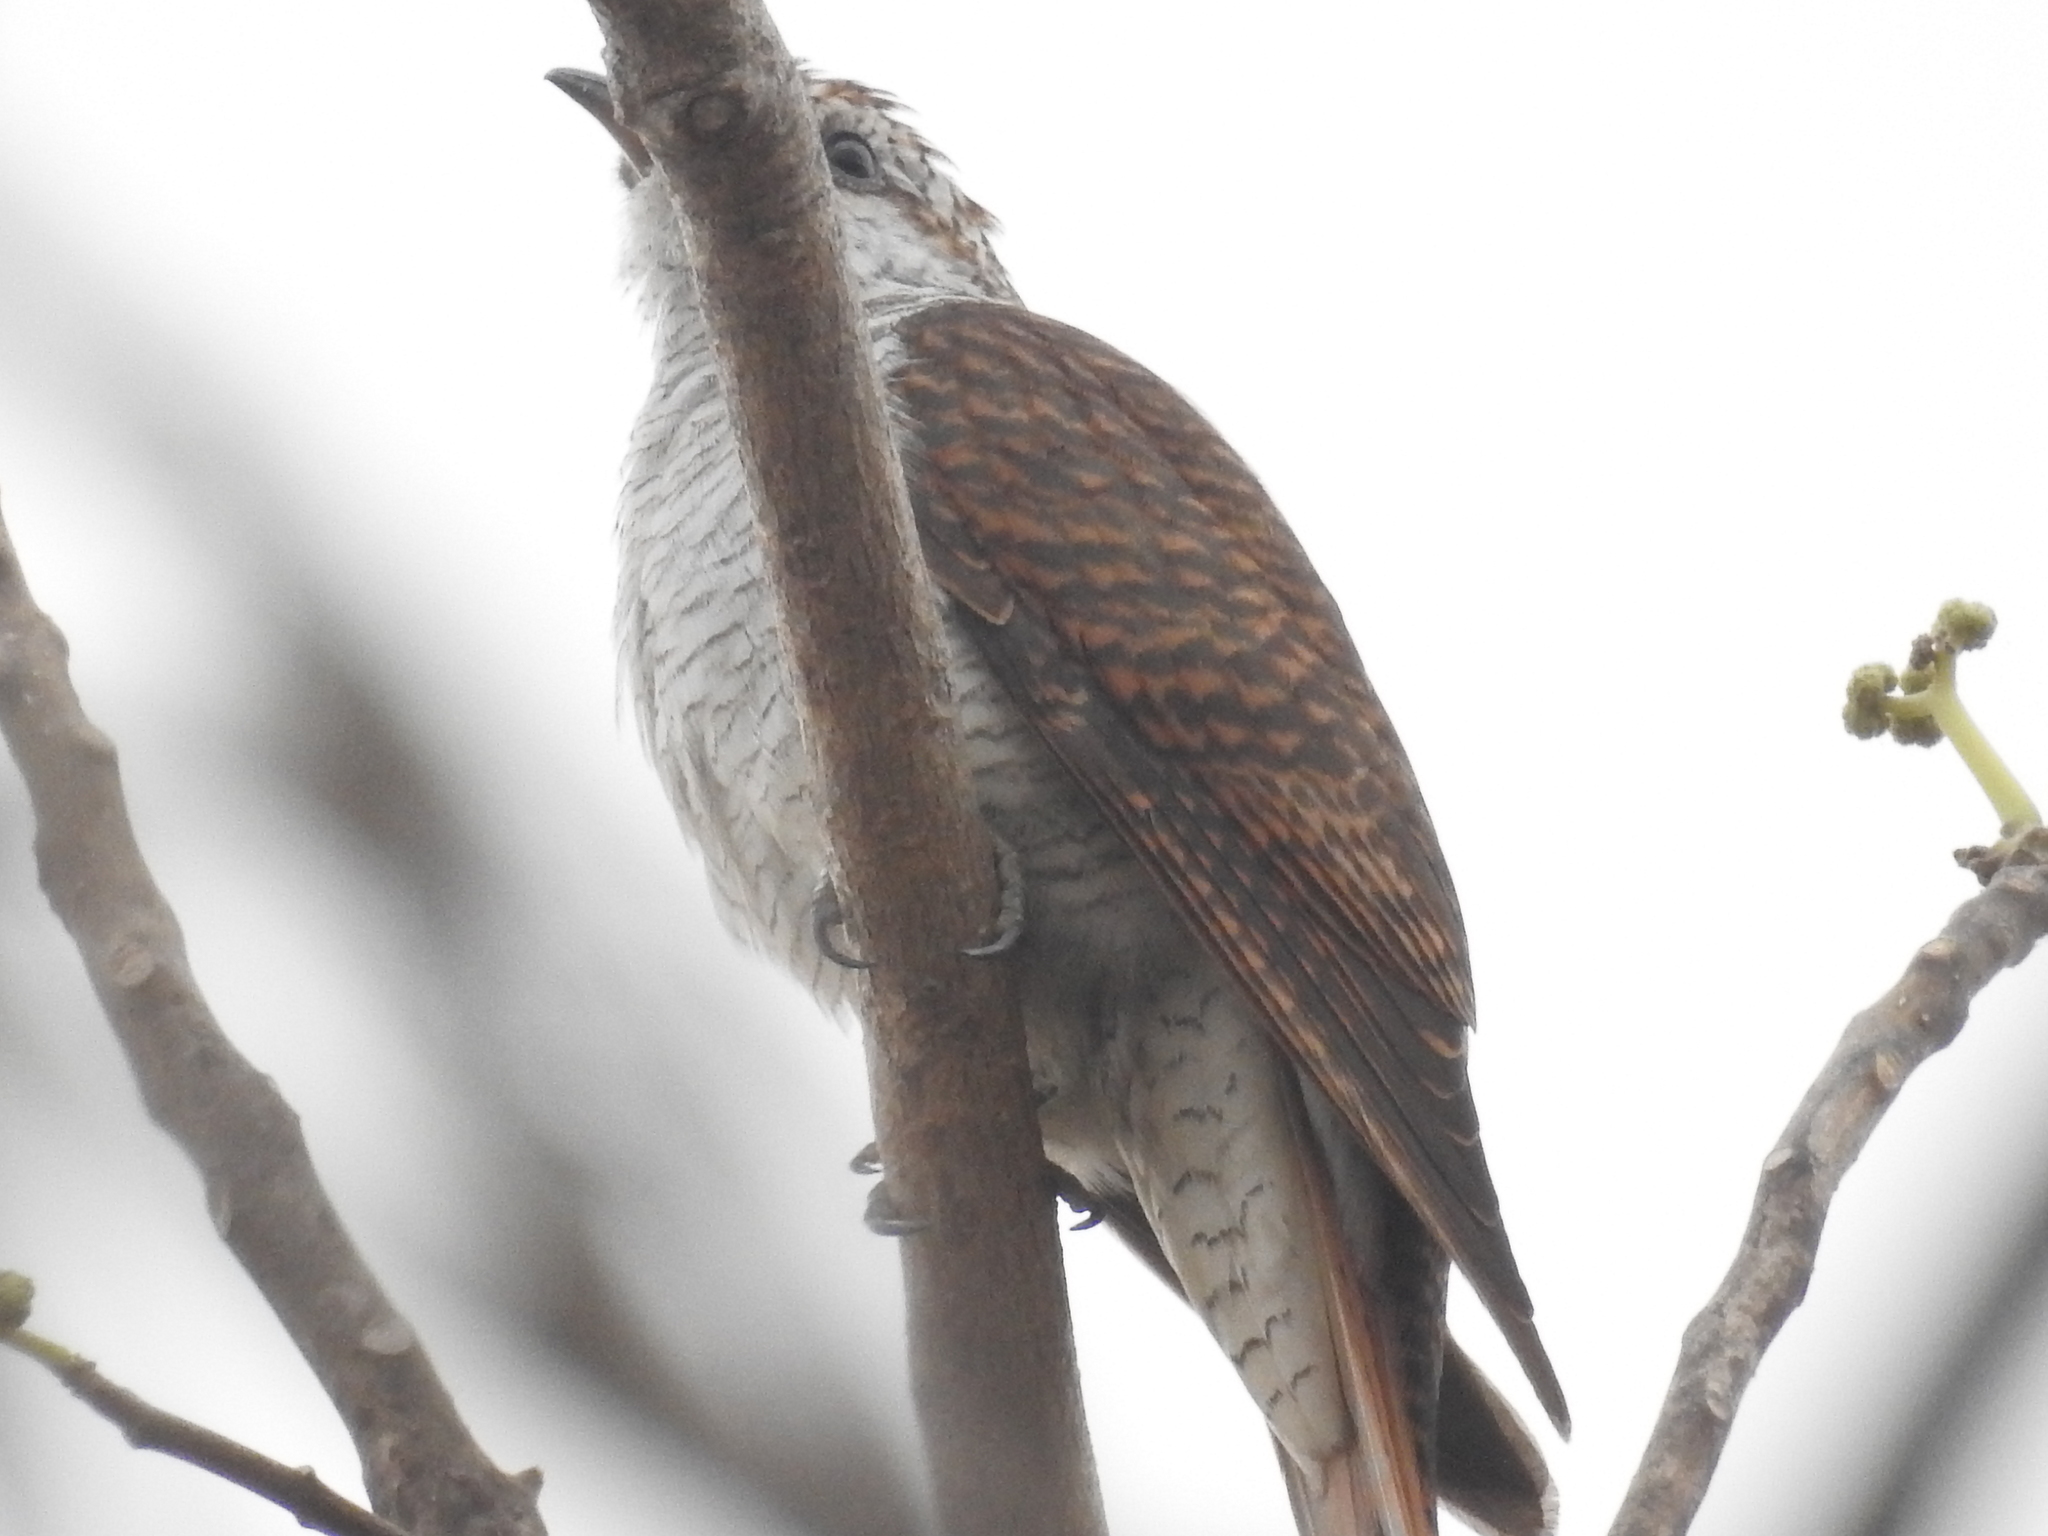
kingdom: Animalia
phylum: Chordata
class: Aves
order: Cuculiformes
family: Cuculidae
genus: Cacomantis
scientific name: Cacomantis sonneratii
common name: Banded bay cuckoo
